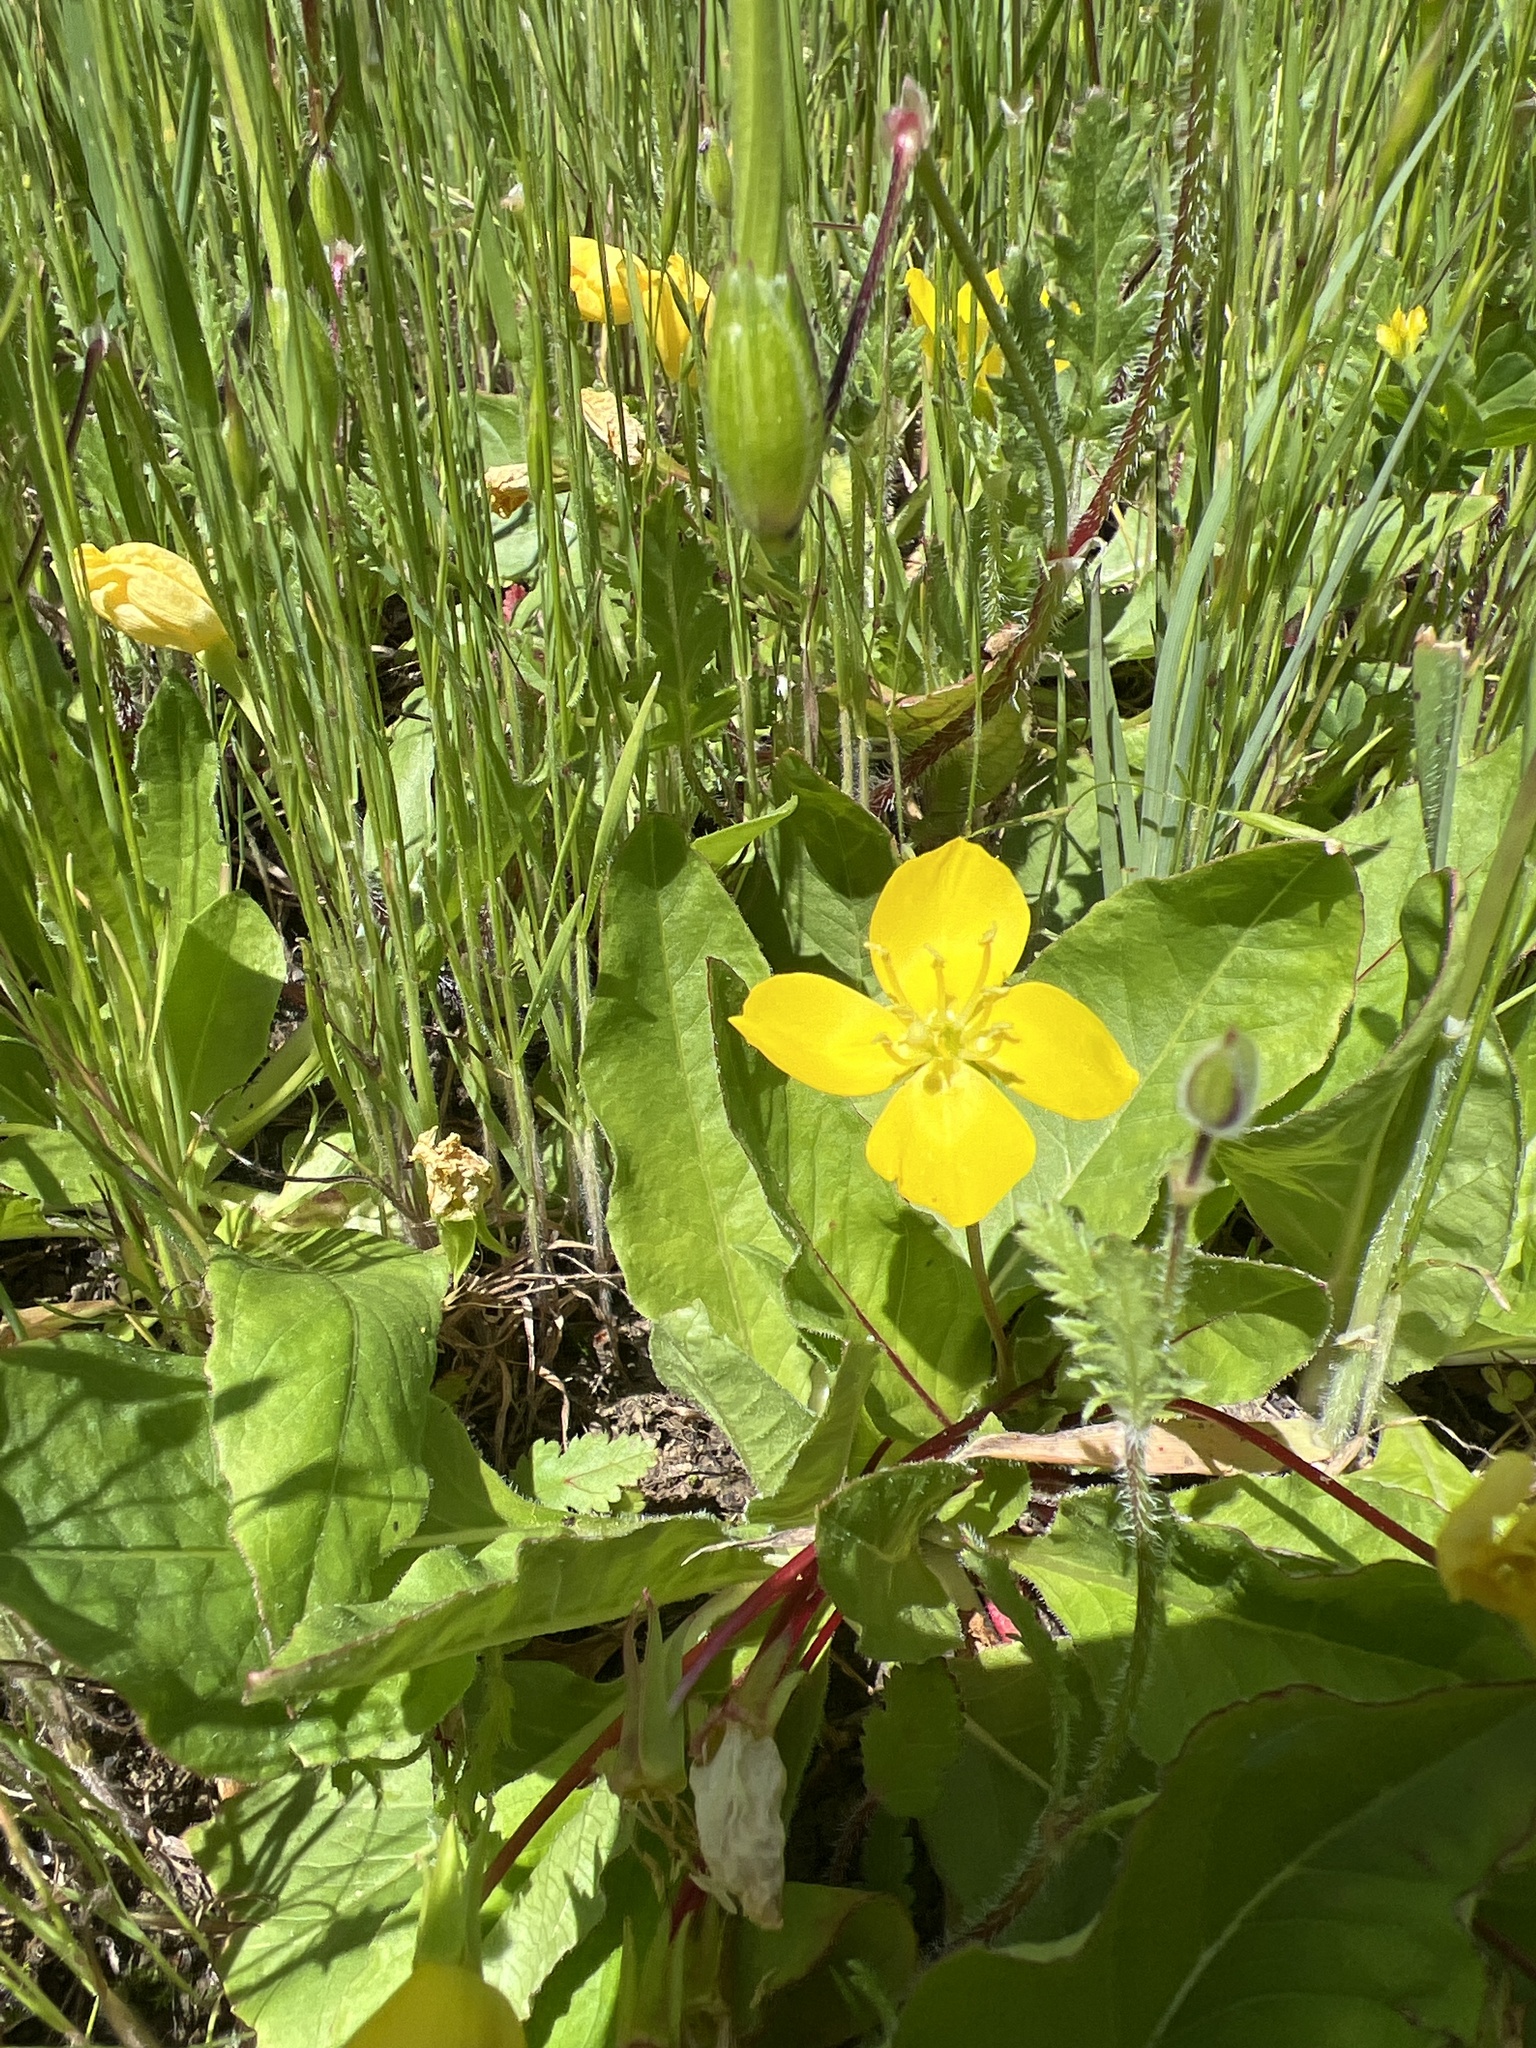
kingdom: Plantae
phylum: Tracheophyta
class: Magnoliopsida
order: Myrtales
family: Onagraceae
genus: Taraxia
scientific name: Taraxia ovata
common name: Goldeneggs
